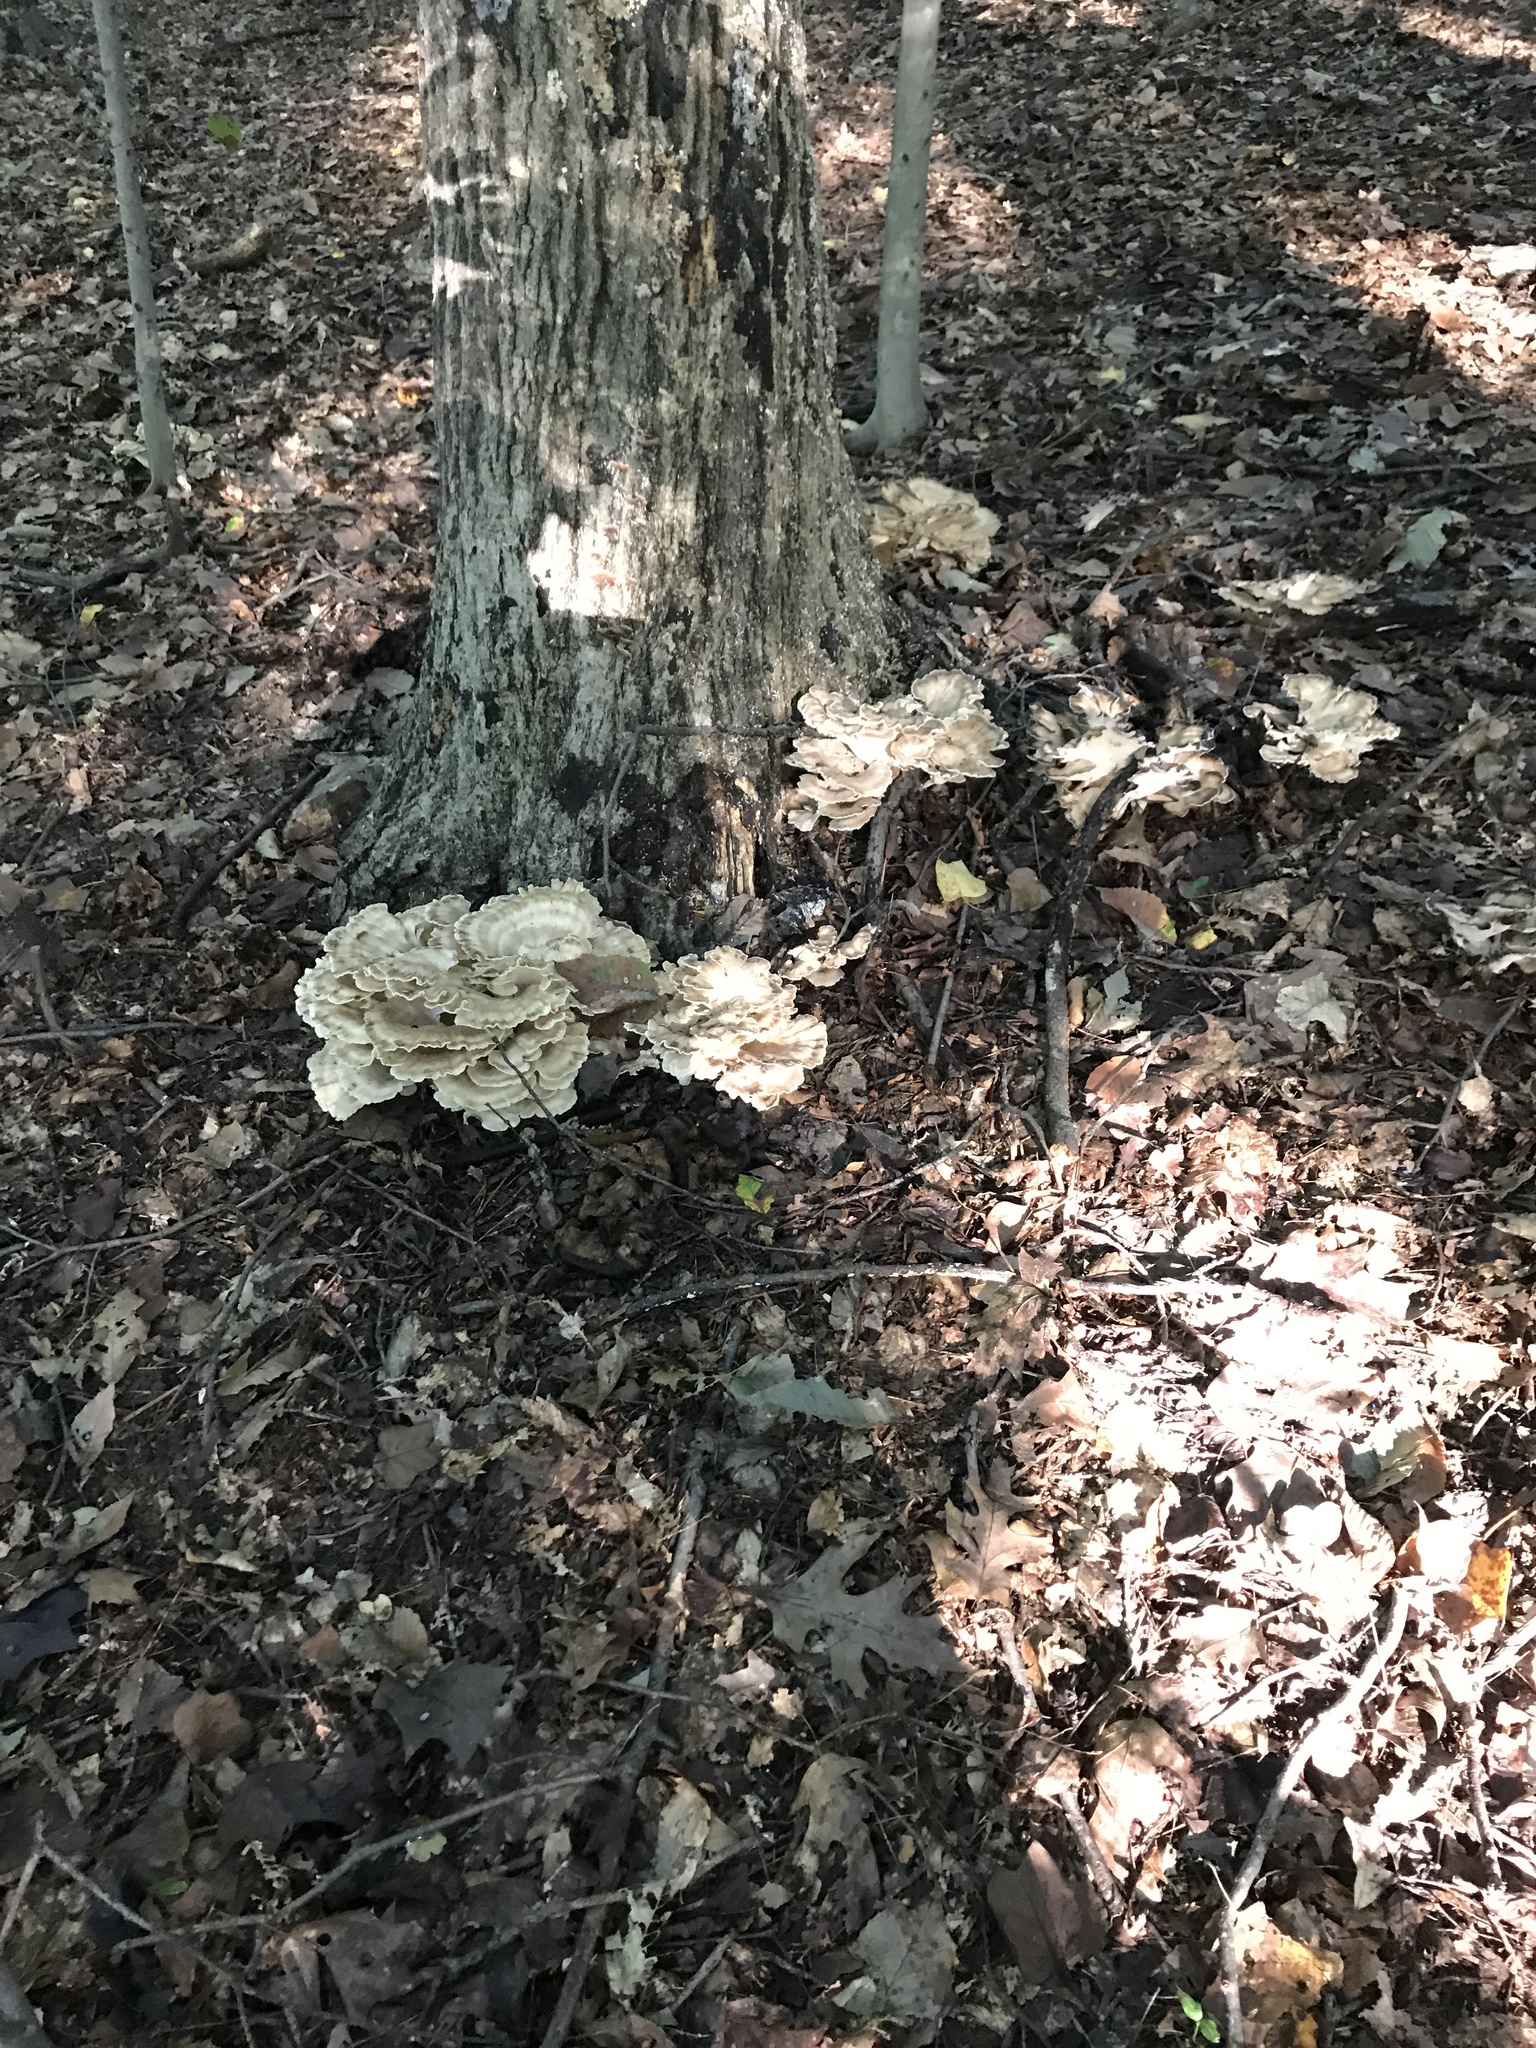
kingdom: Fungi
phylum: Basidiomycota
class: Agaricomycetes
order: Polyporales
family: Meripilaceae
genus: Meripilus
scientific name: Meripilus sumstinei
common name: Black-staining polypore
